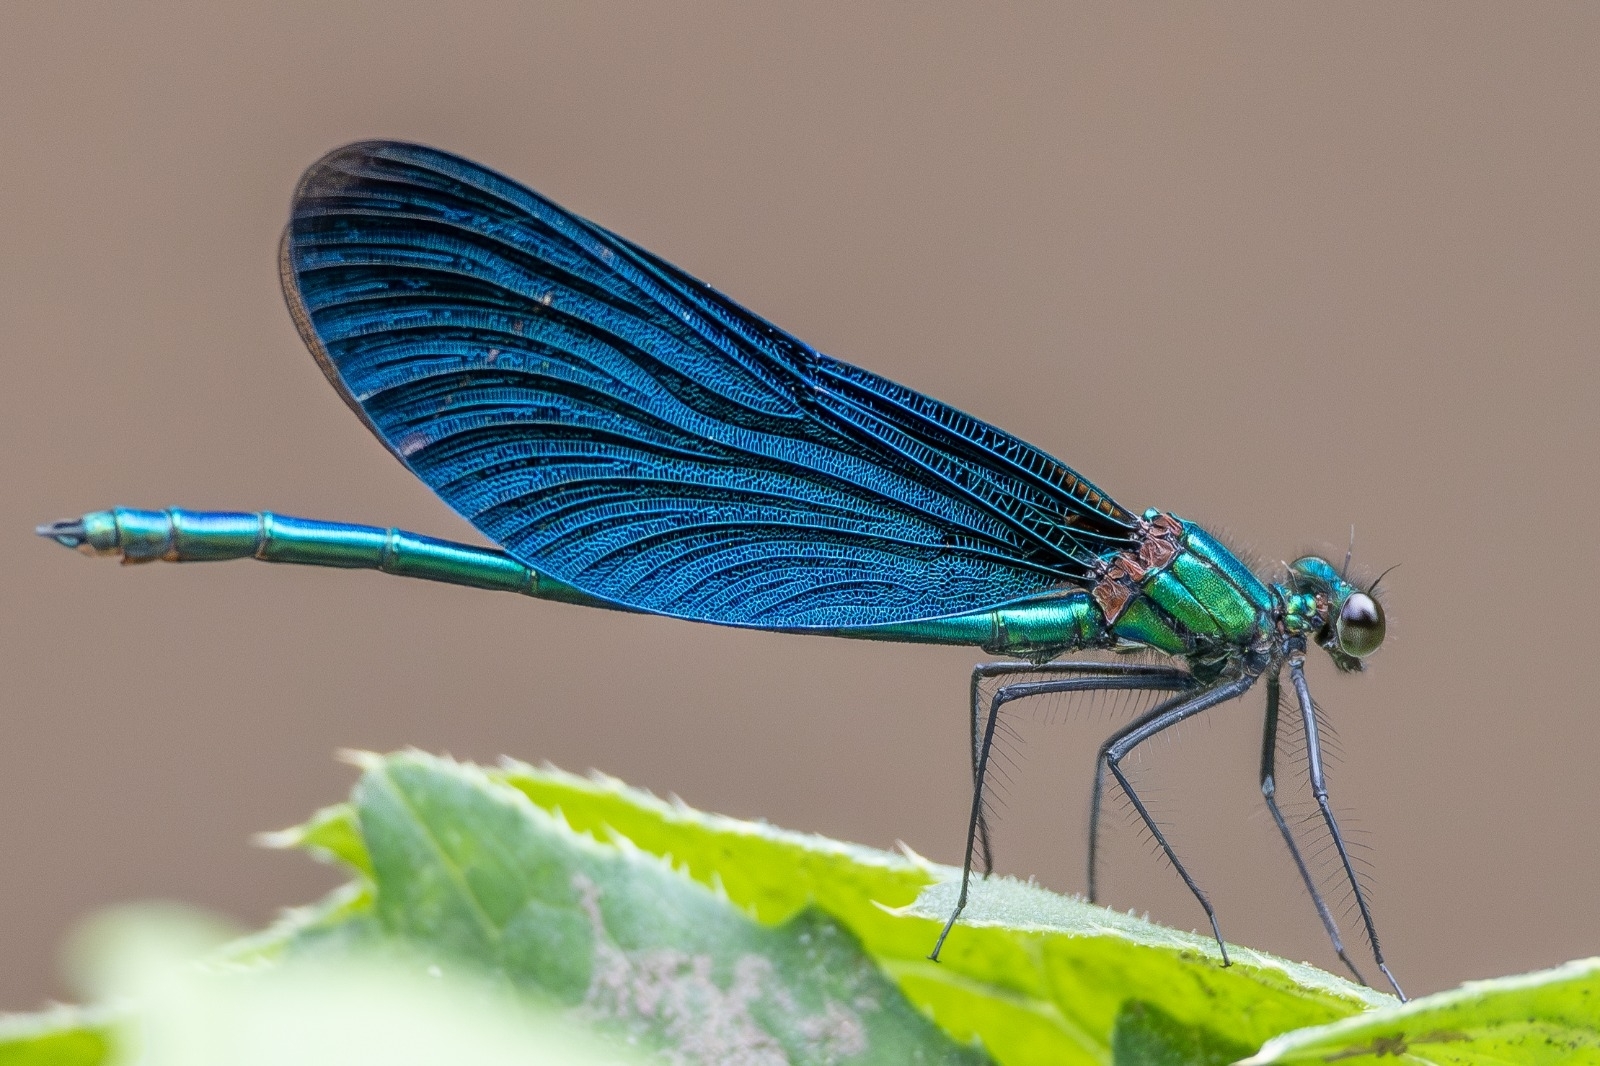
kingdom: Animalia
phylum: Arthropoda
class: Insecta
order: Odonata
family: Calopterygidae
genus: Calopteryx
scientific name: Calopteryx virgo
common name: Beautiful demoiselle
